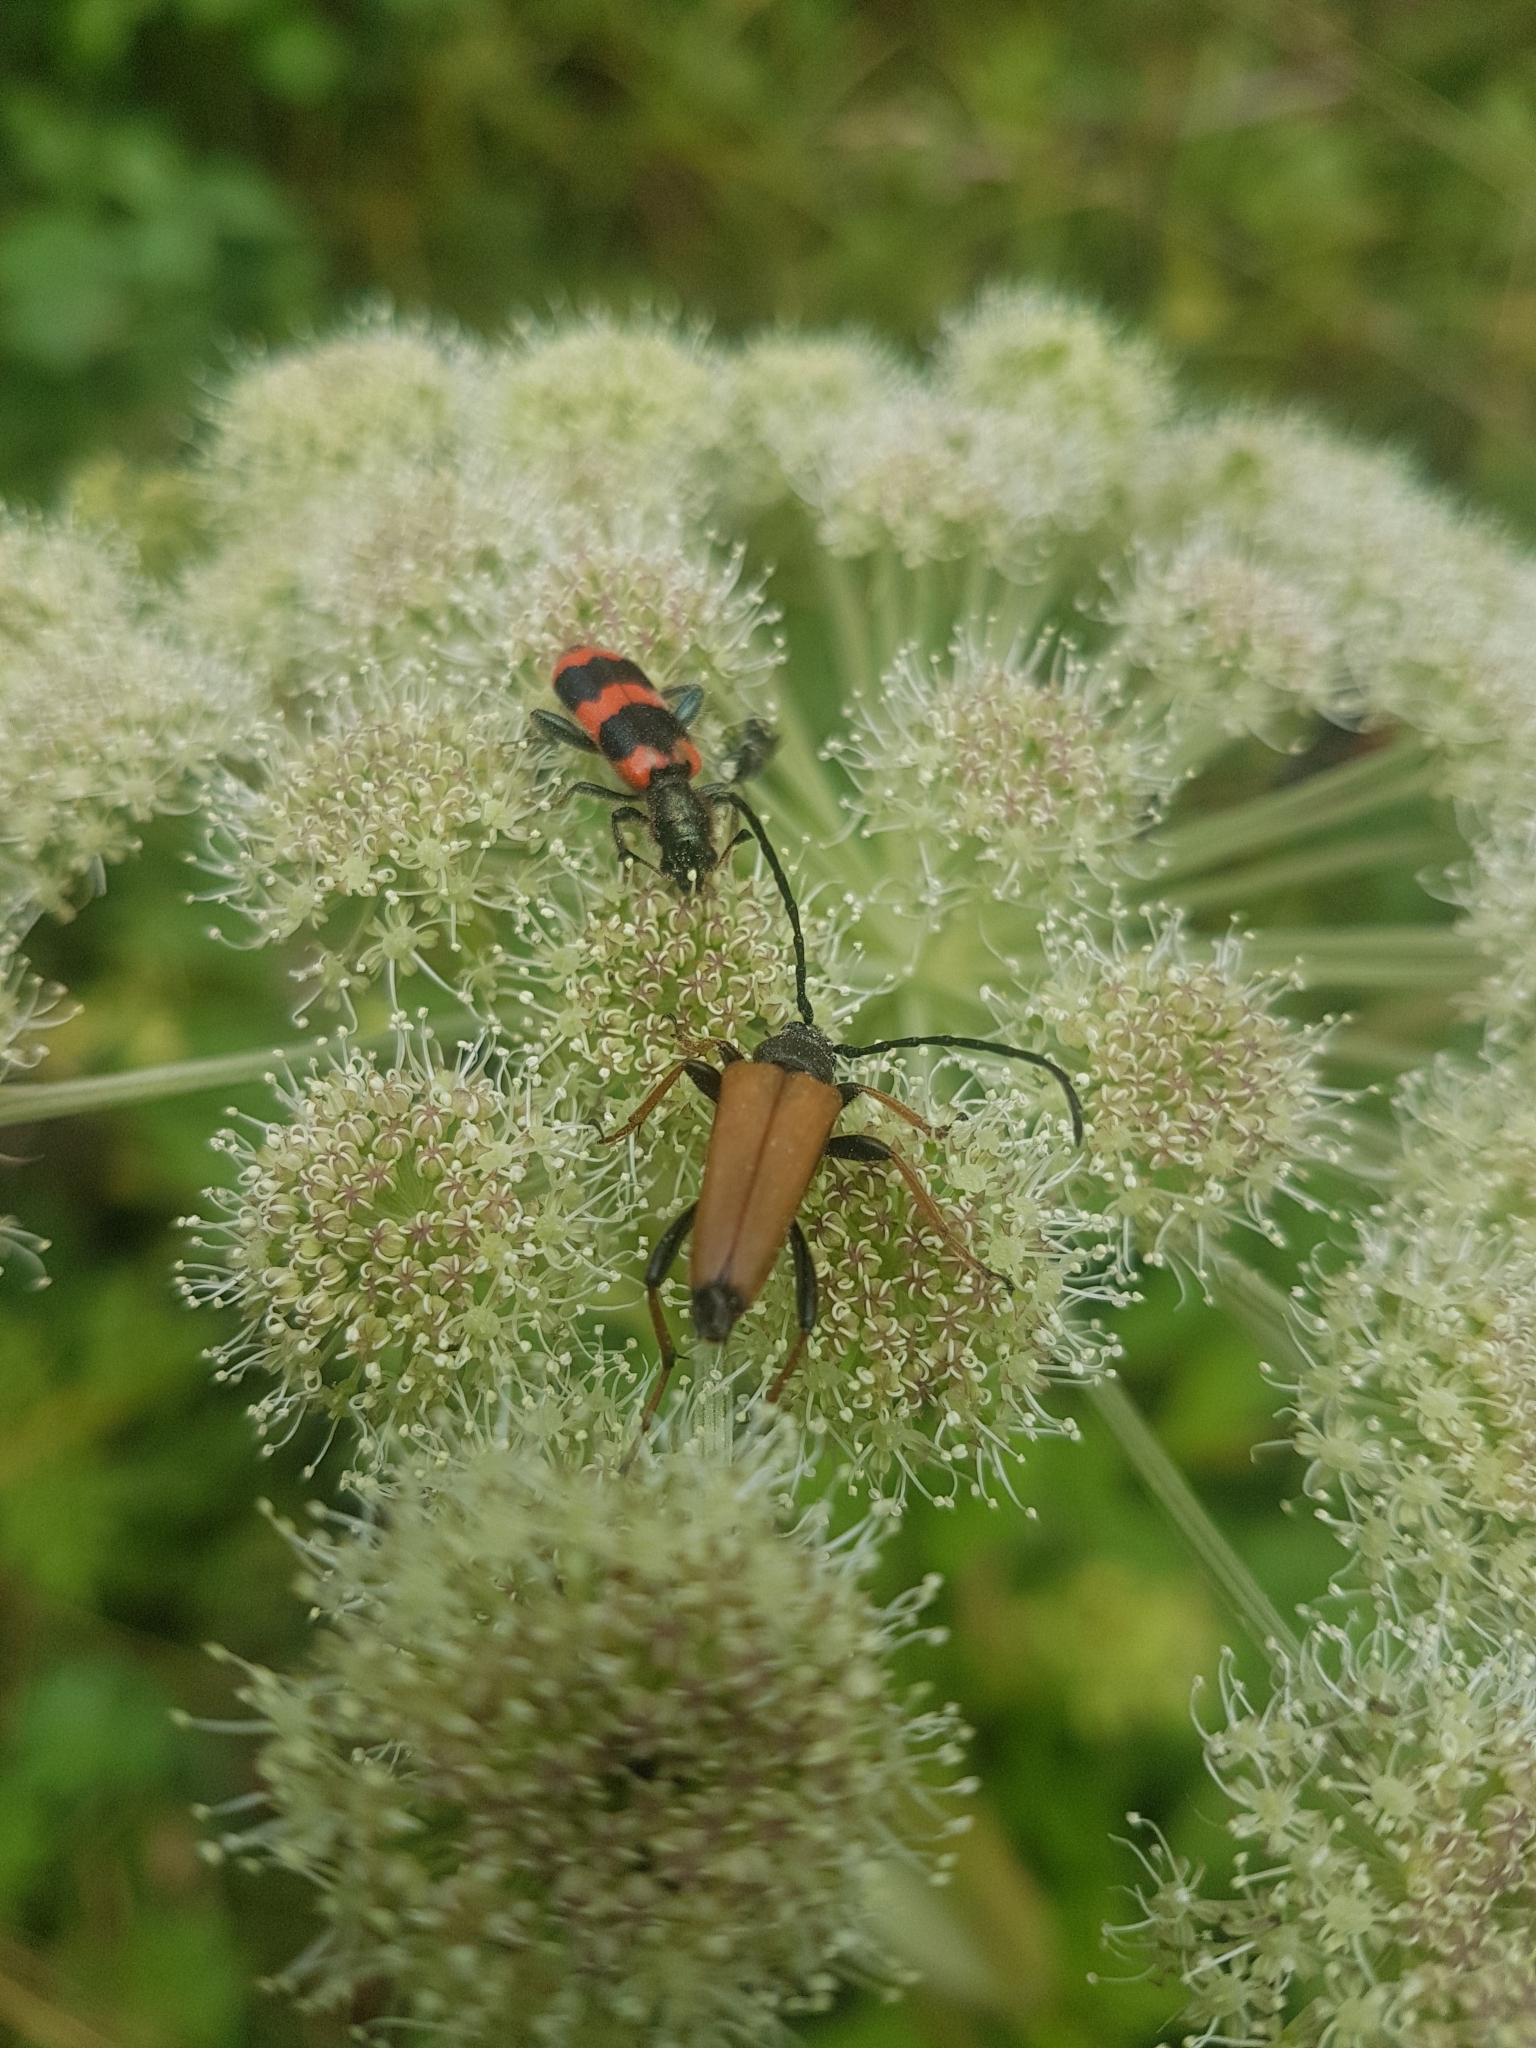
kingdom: Animalia
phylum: Arthropoda
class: Insecta
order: Coleoptera
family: Cleridae
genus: Trichodes
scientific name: Trichodes apiarius
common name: Bee-eating beetle
